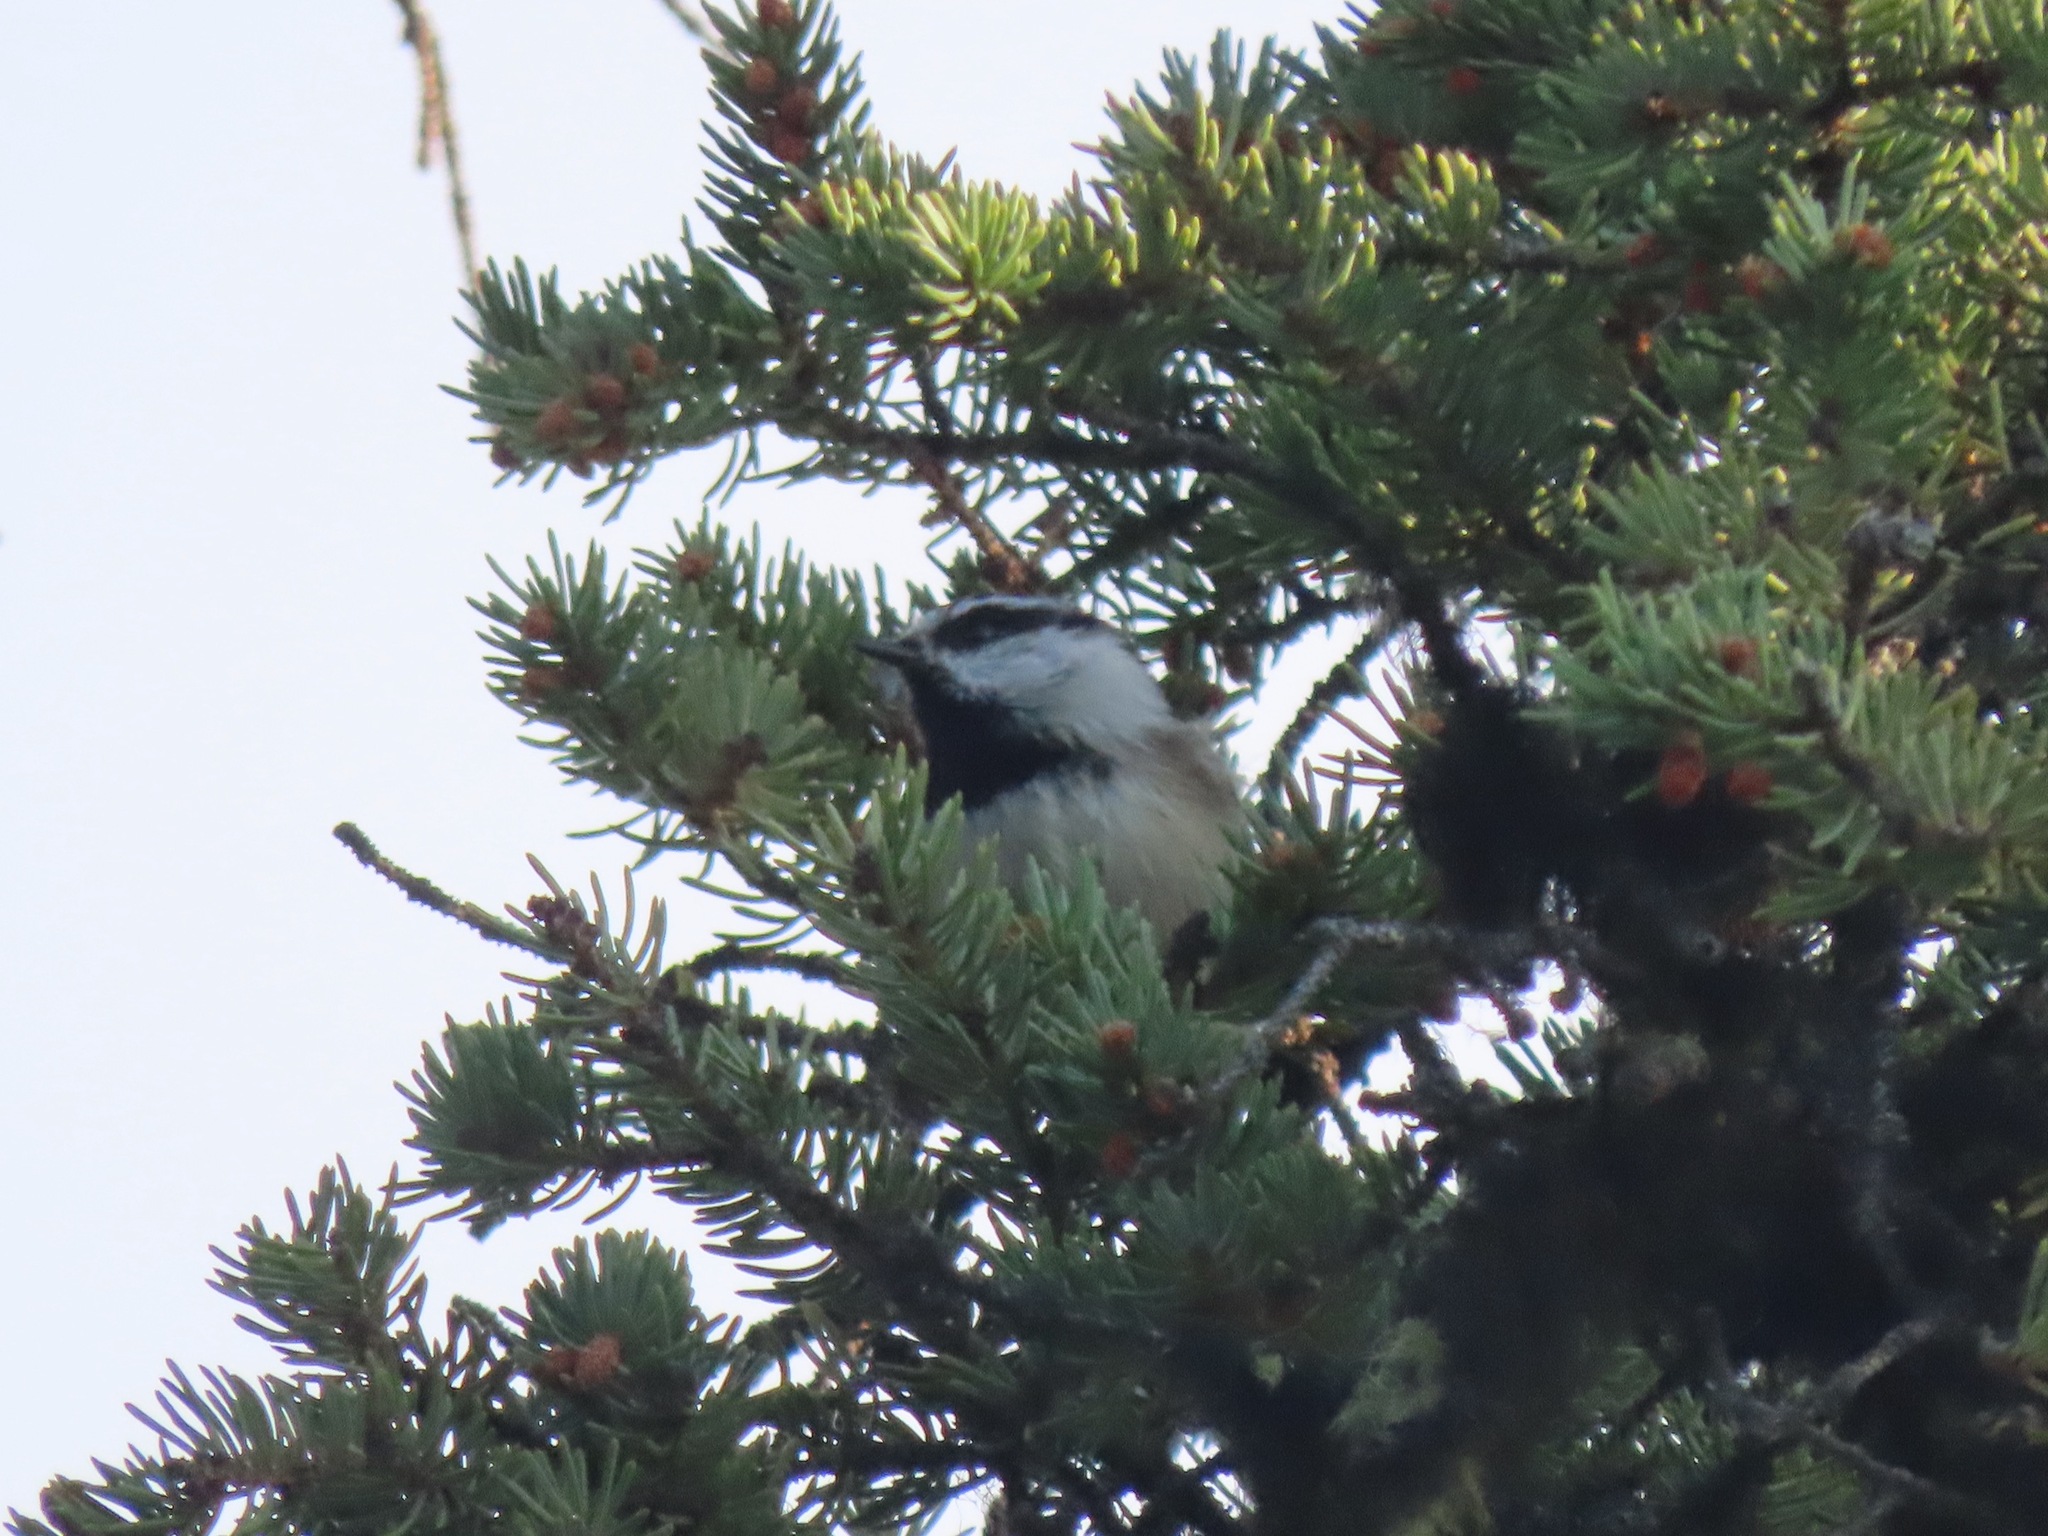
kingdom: Animalia
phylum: Chordata
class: Aves
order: Passeriformes
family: Paridae
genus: Poecile
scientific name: Poecile gambeli
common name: Mountain chickadee
